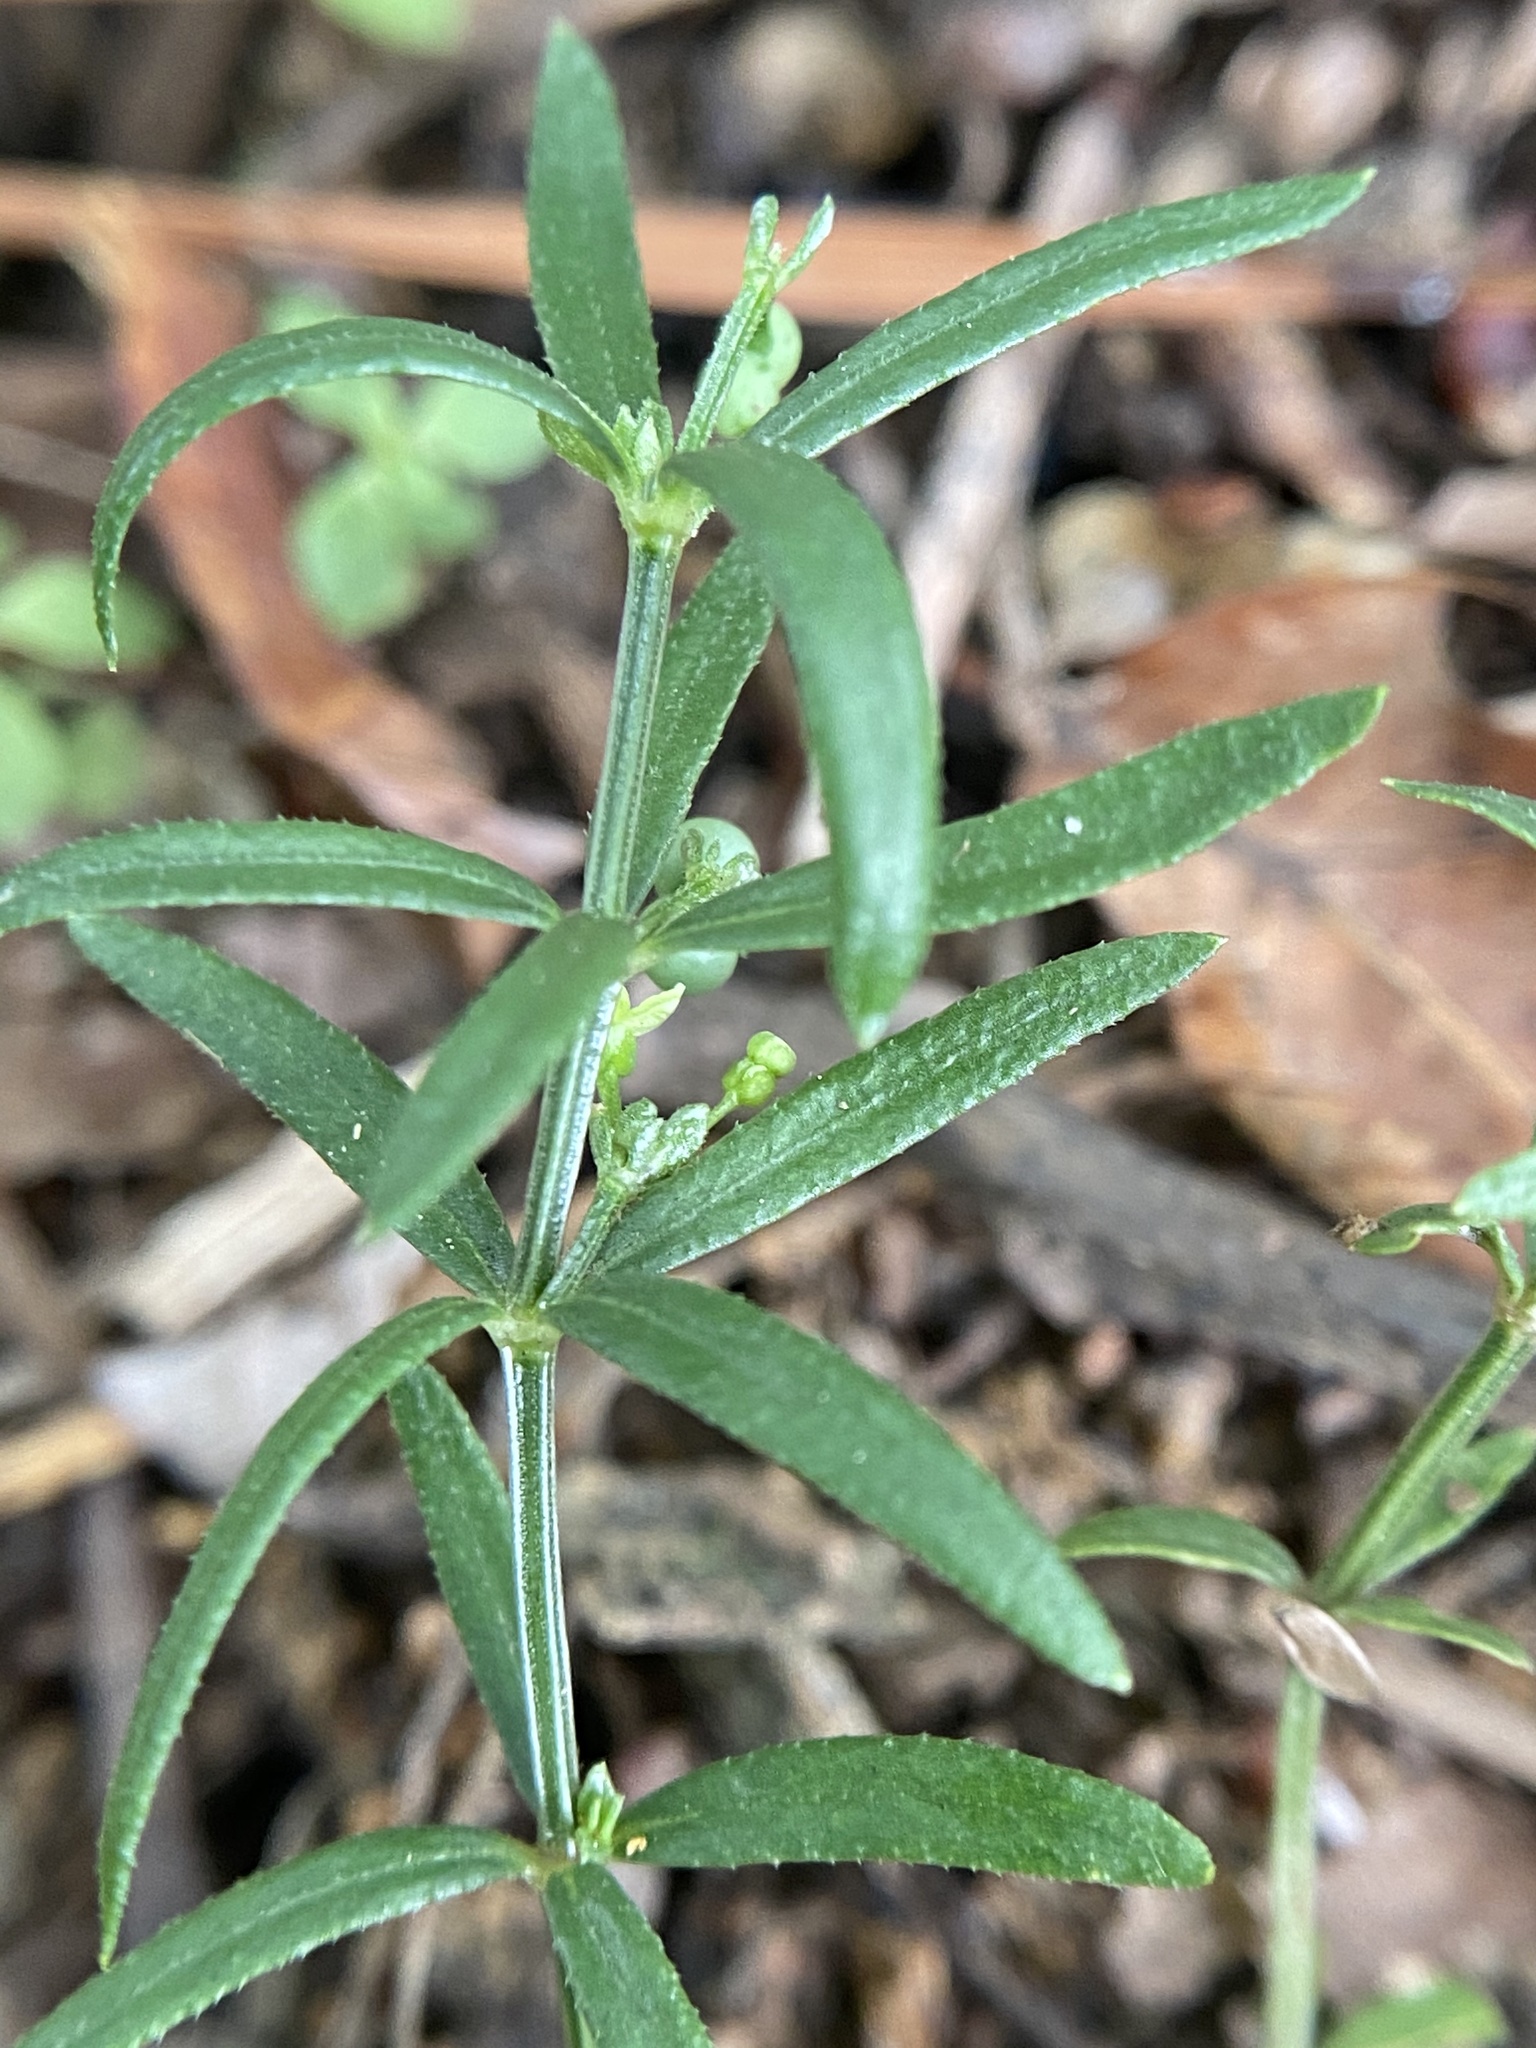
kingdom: Plantae
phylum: Tracheophyta
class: Magnoliopsida
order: Gentianales
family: Rubiaceae
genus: Galium
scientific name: Galium uniflorum
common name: One-flower bedstraw
